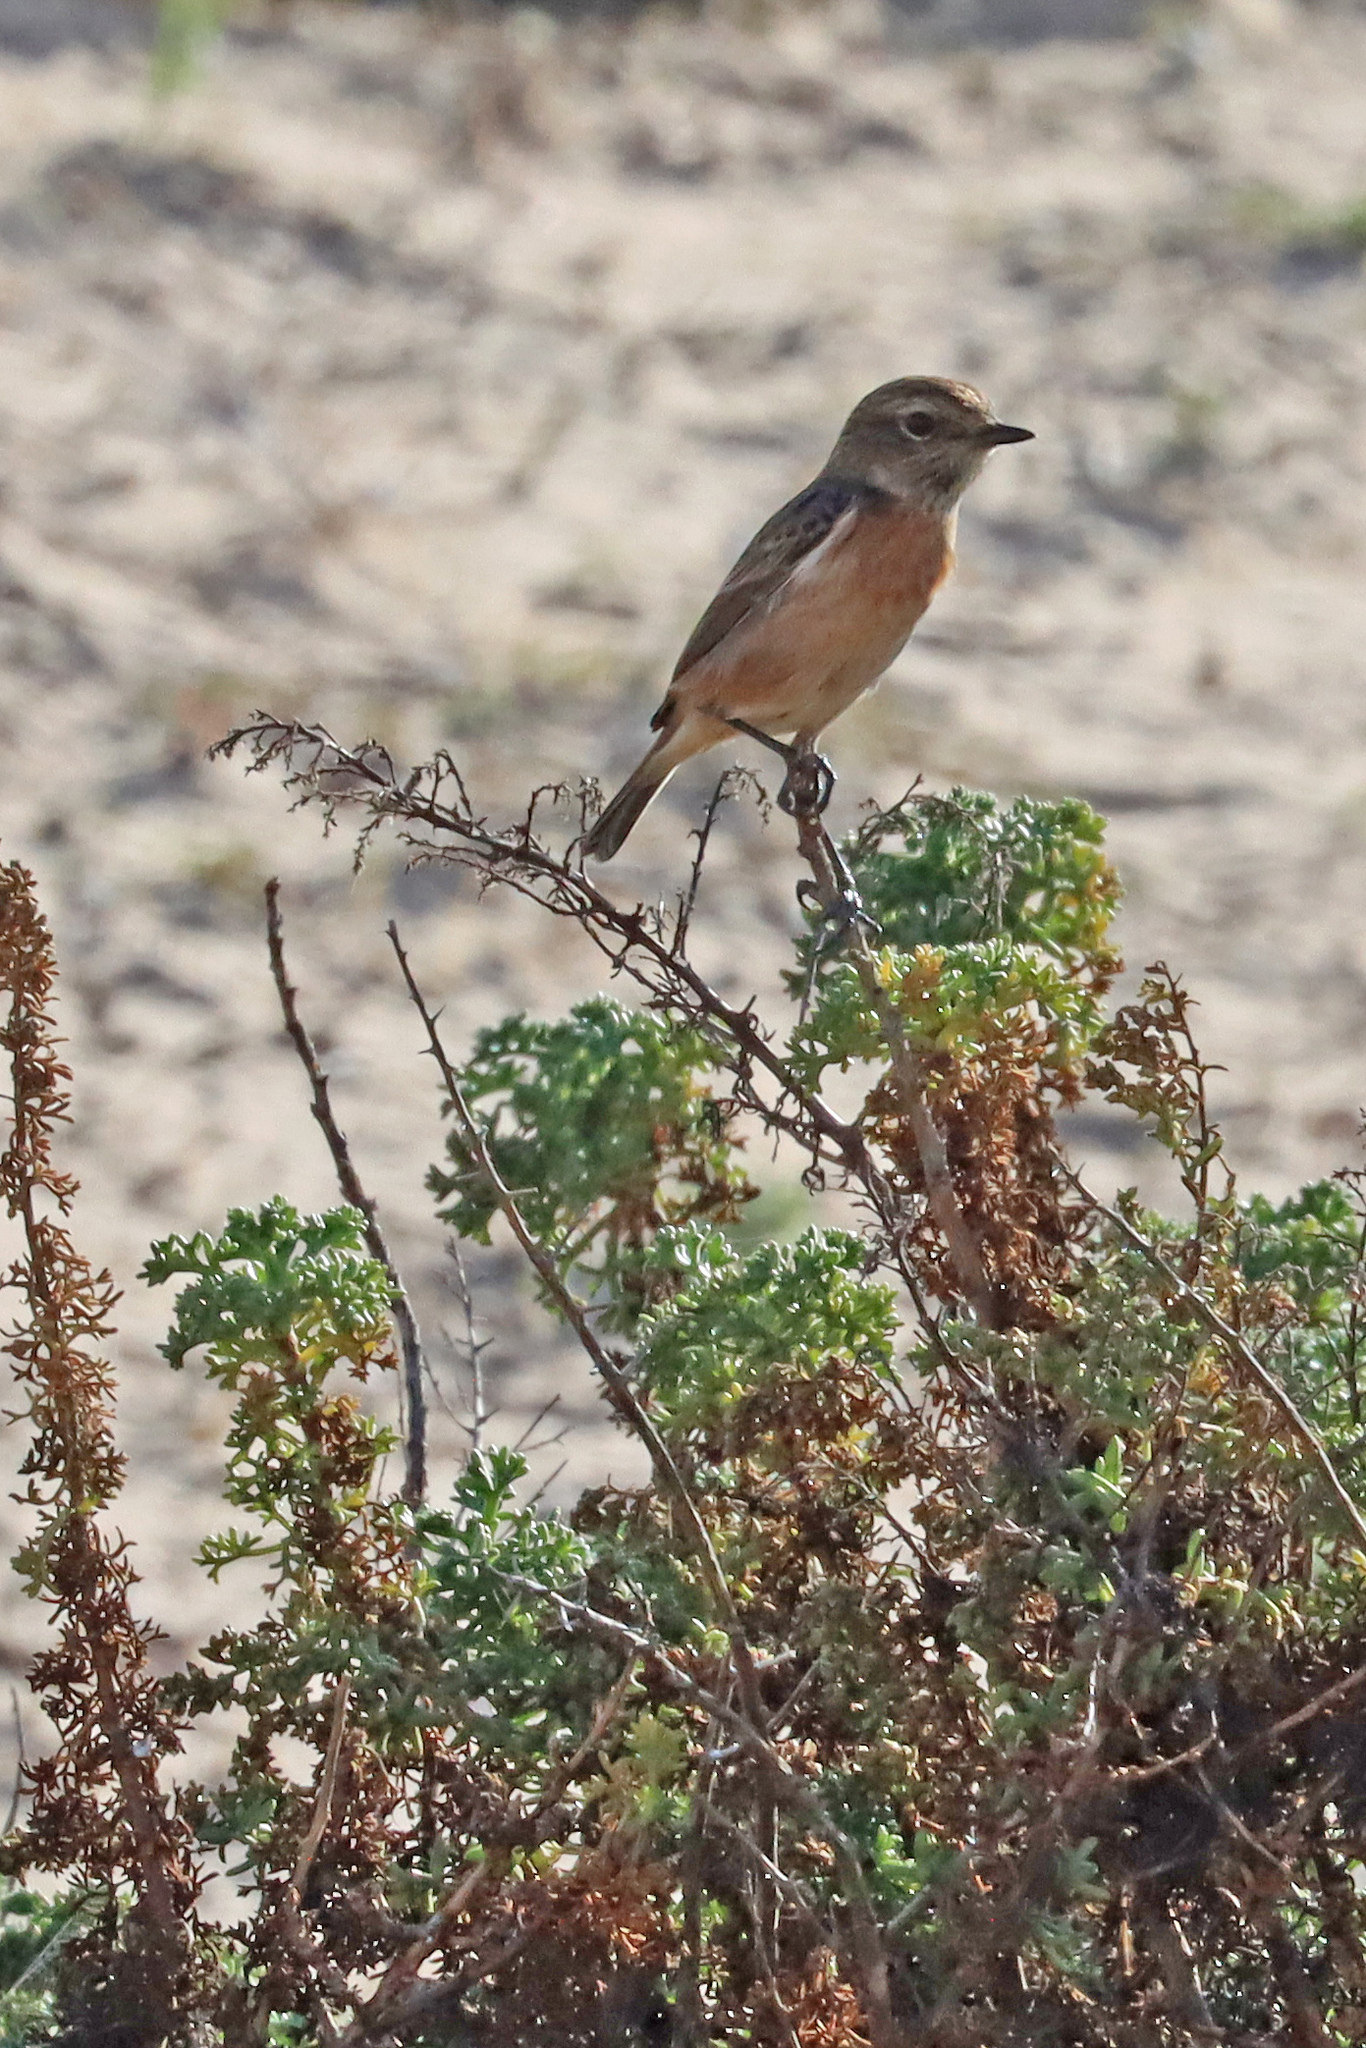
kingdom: Animalia
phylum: Chordata
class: Aves
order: Passeriformes
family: Muscicapidae
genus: Saxicola
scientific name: Saxicola rubicola
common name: European stonechat
